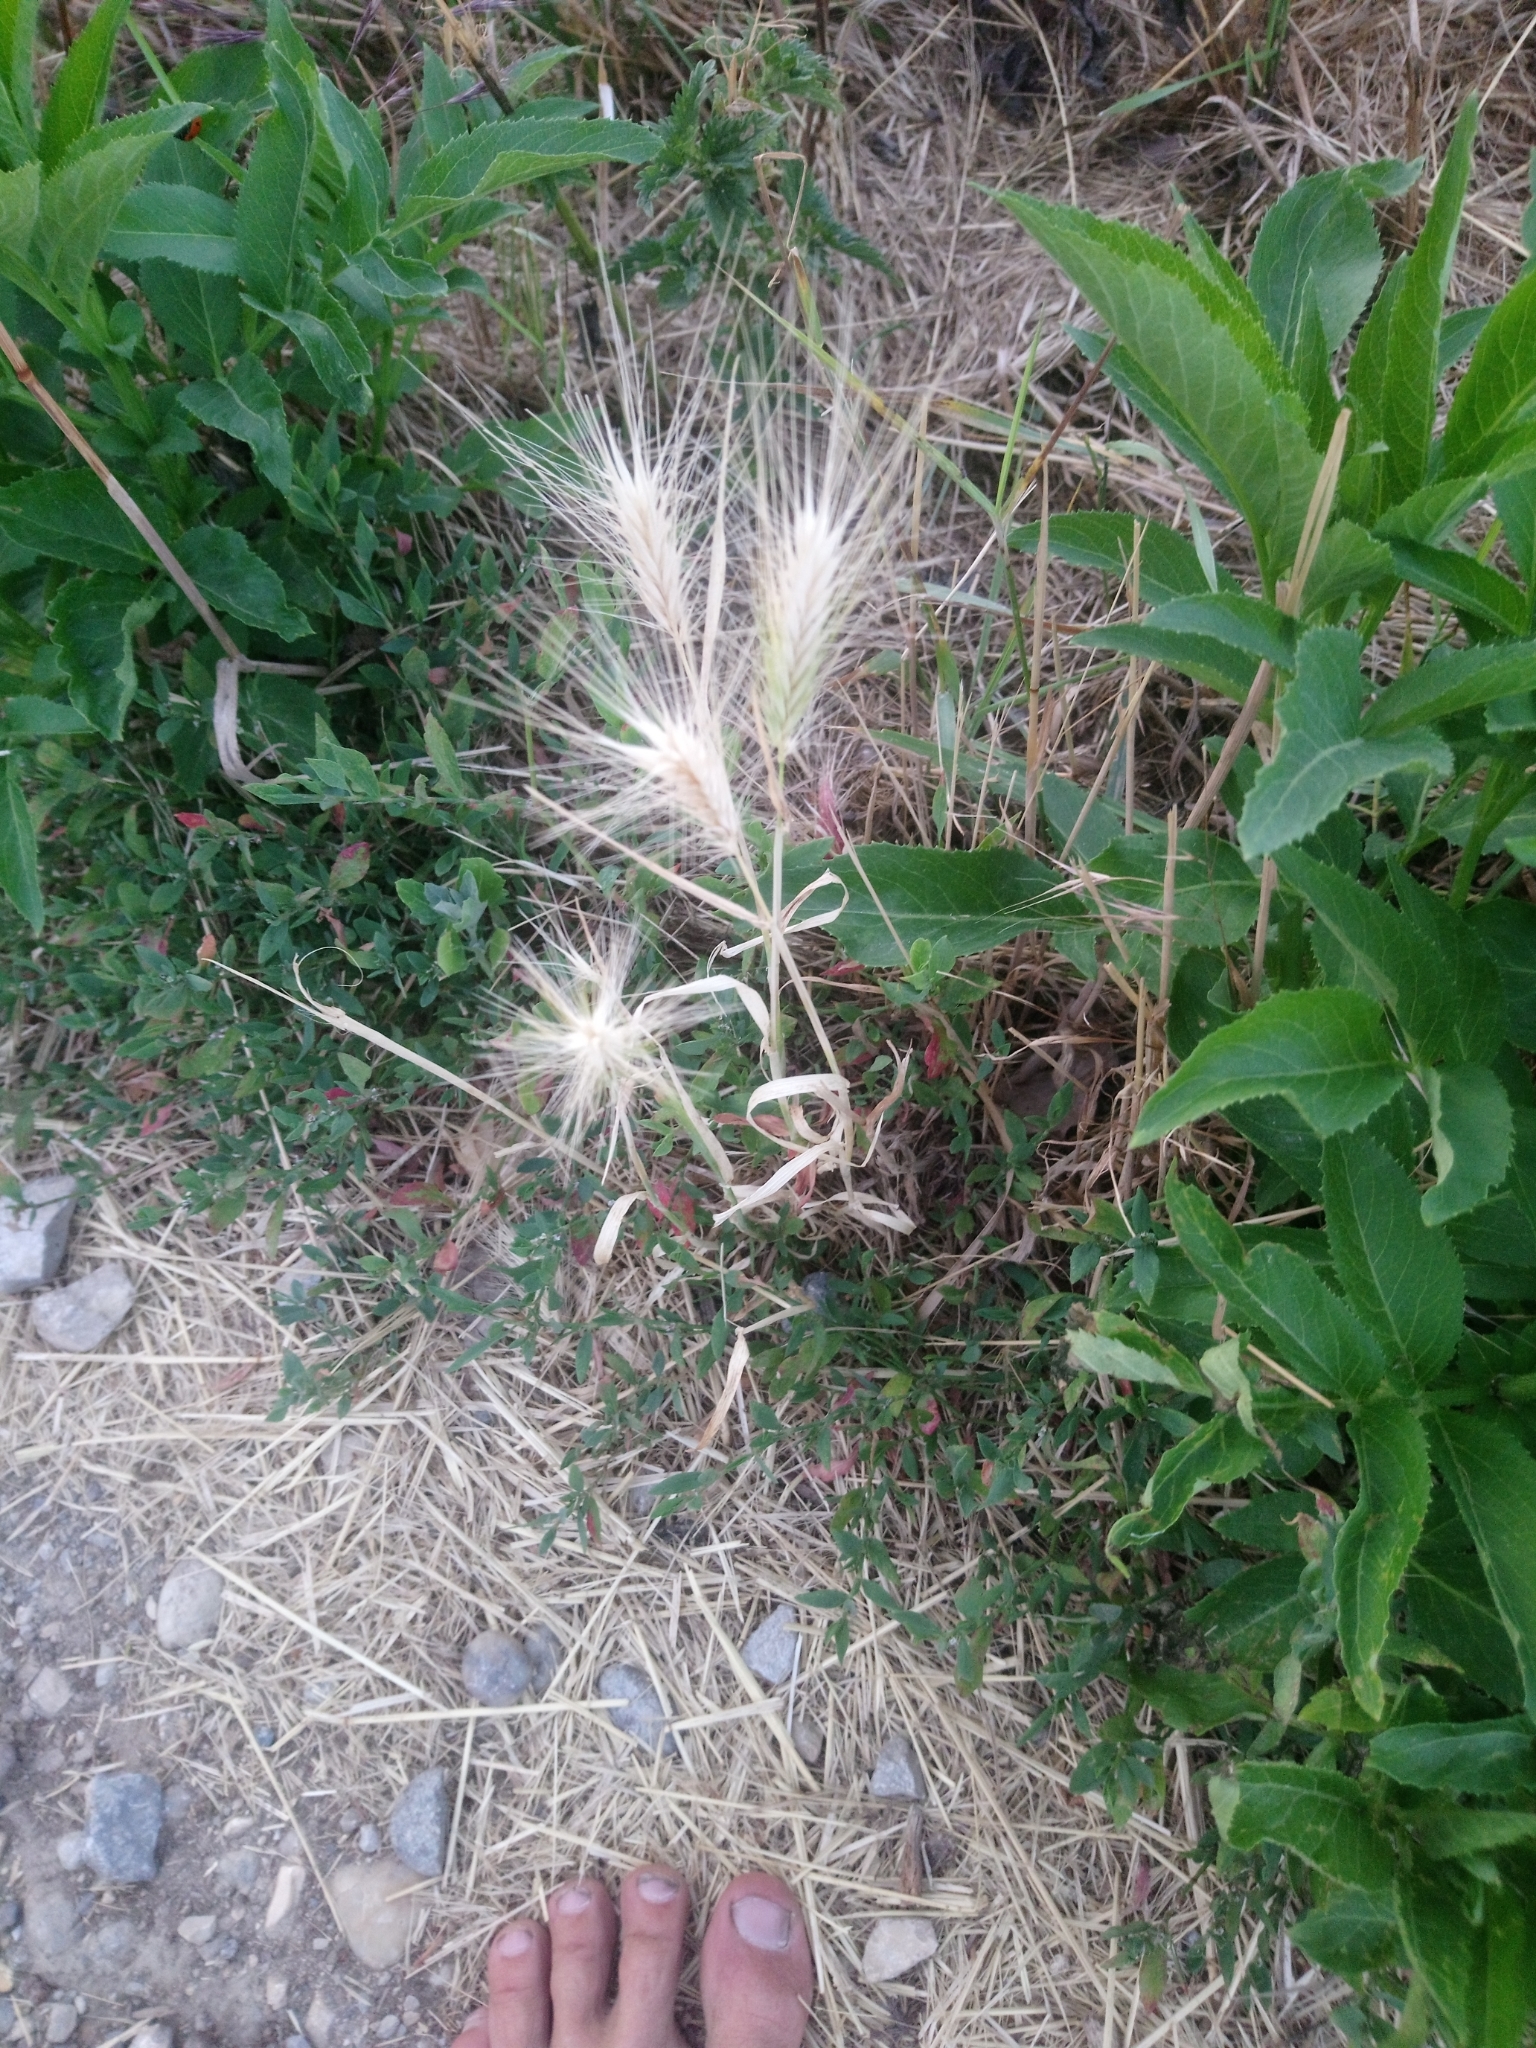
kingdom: Plantae
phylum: Tracheophyta
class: Liliopsida
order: Poales
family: Poaceae
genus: Hordeum
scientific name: Hordeum murinum
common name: Wall barley
